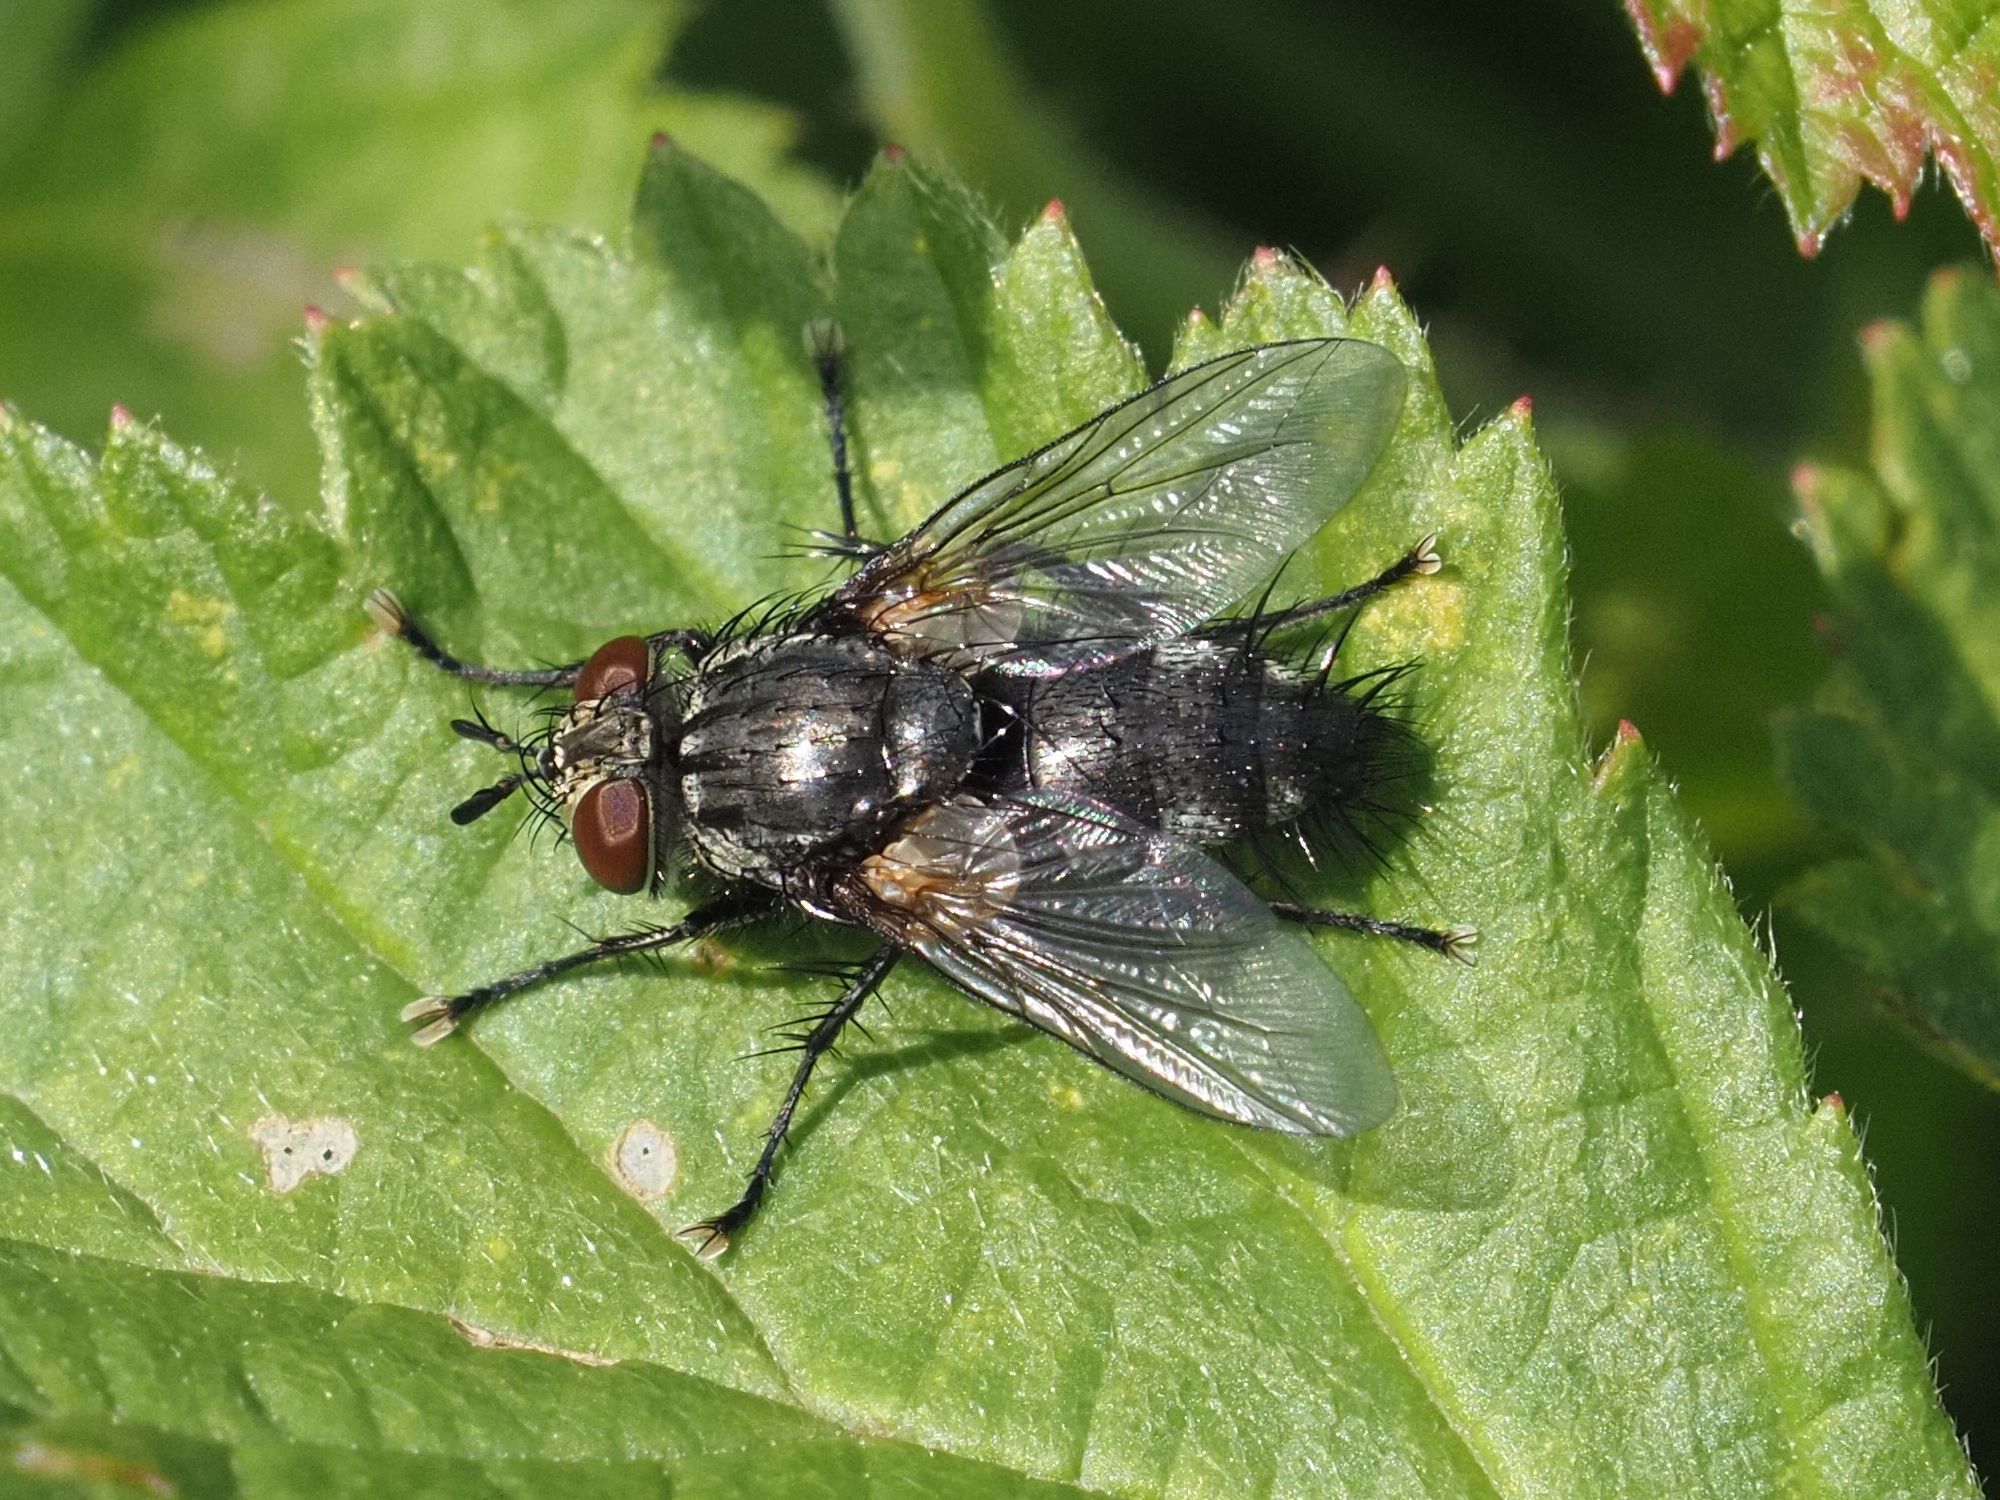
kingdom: Animalia
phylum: Arthropoda
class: Insecta
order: Diptera
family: Tachinidae
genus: Voria
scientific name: Voria ruralis
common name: Parasitic fly
